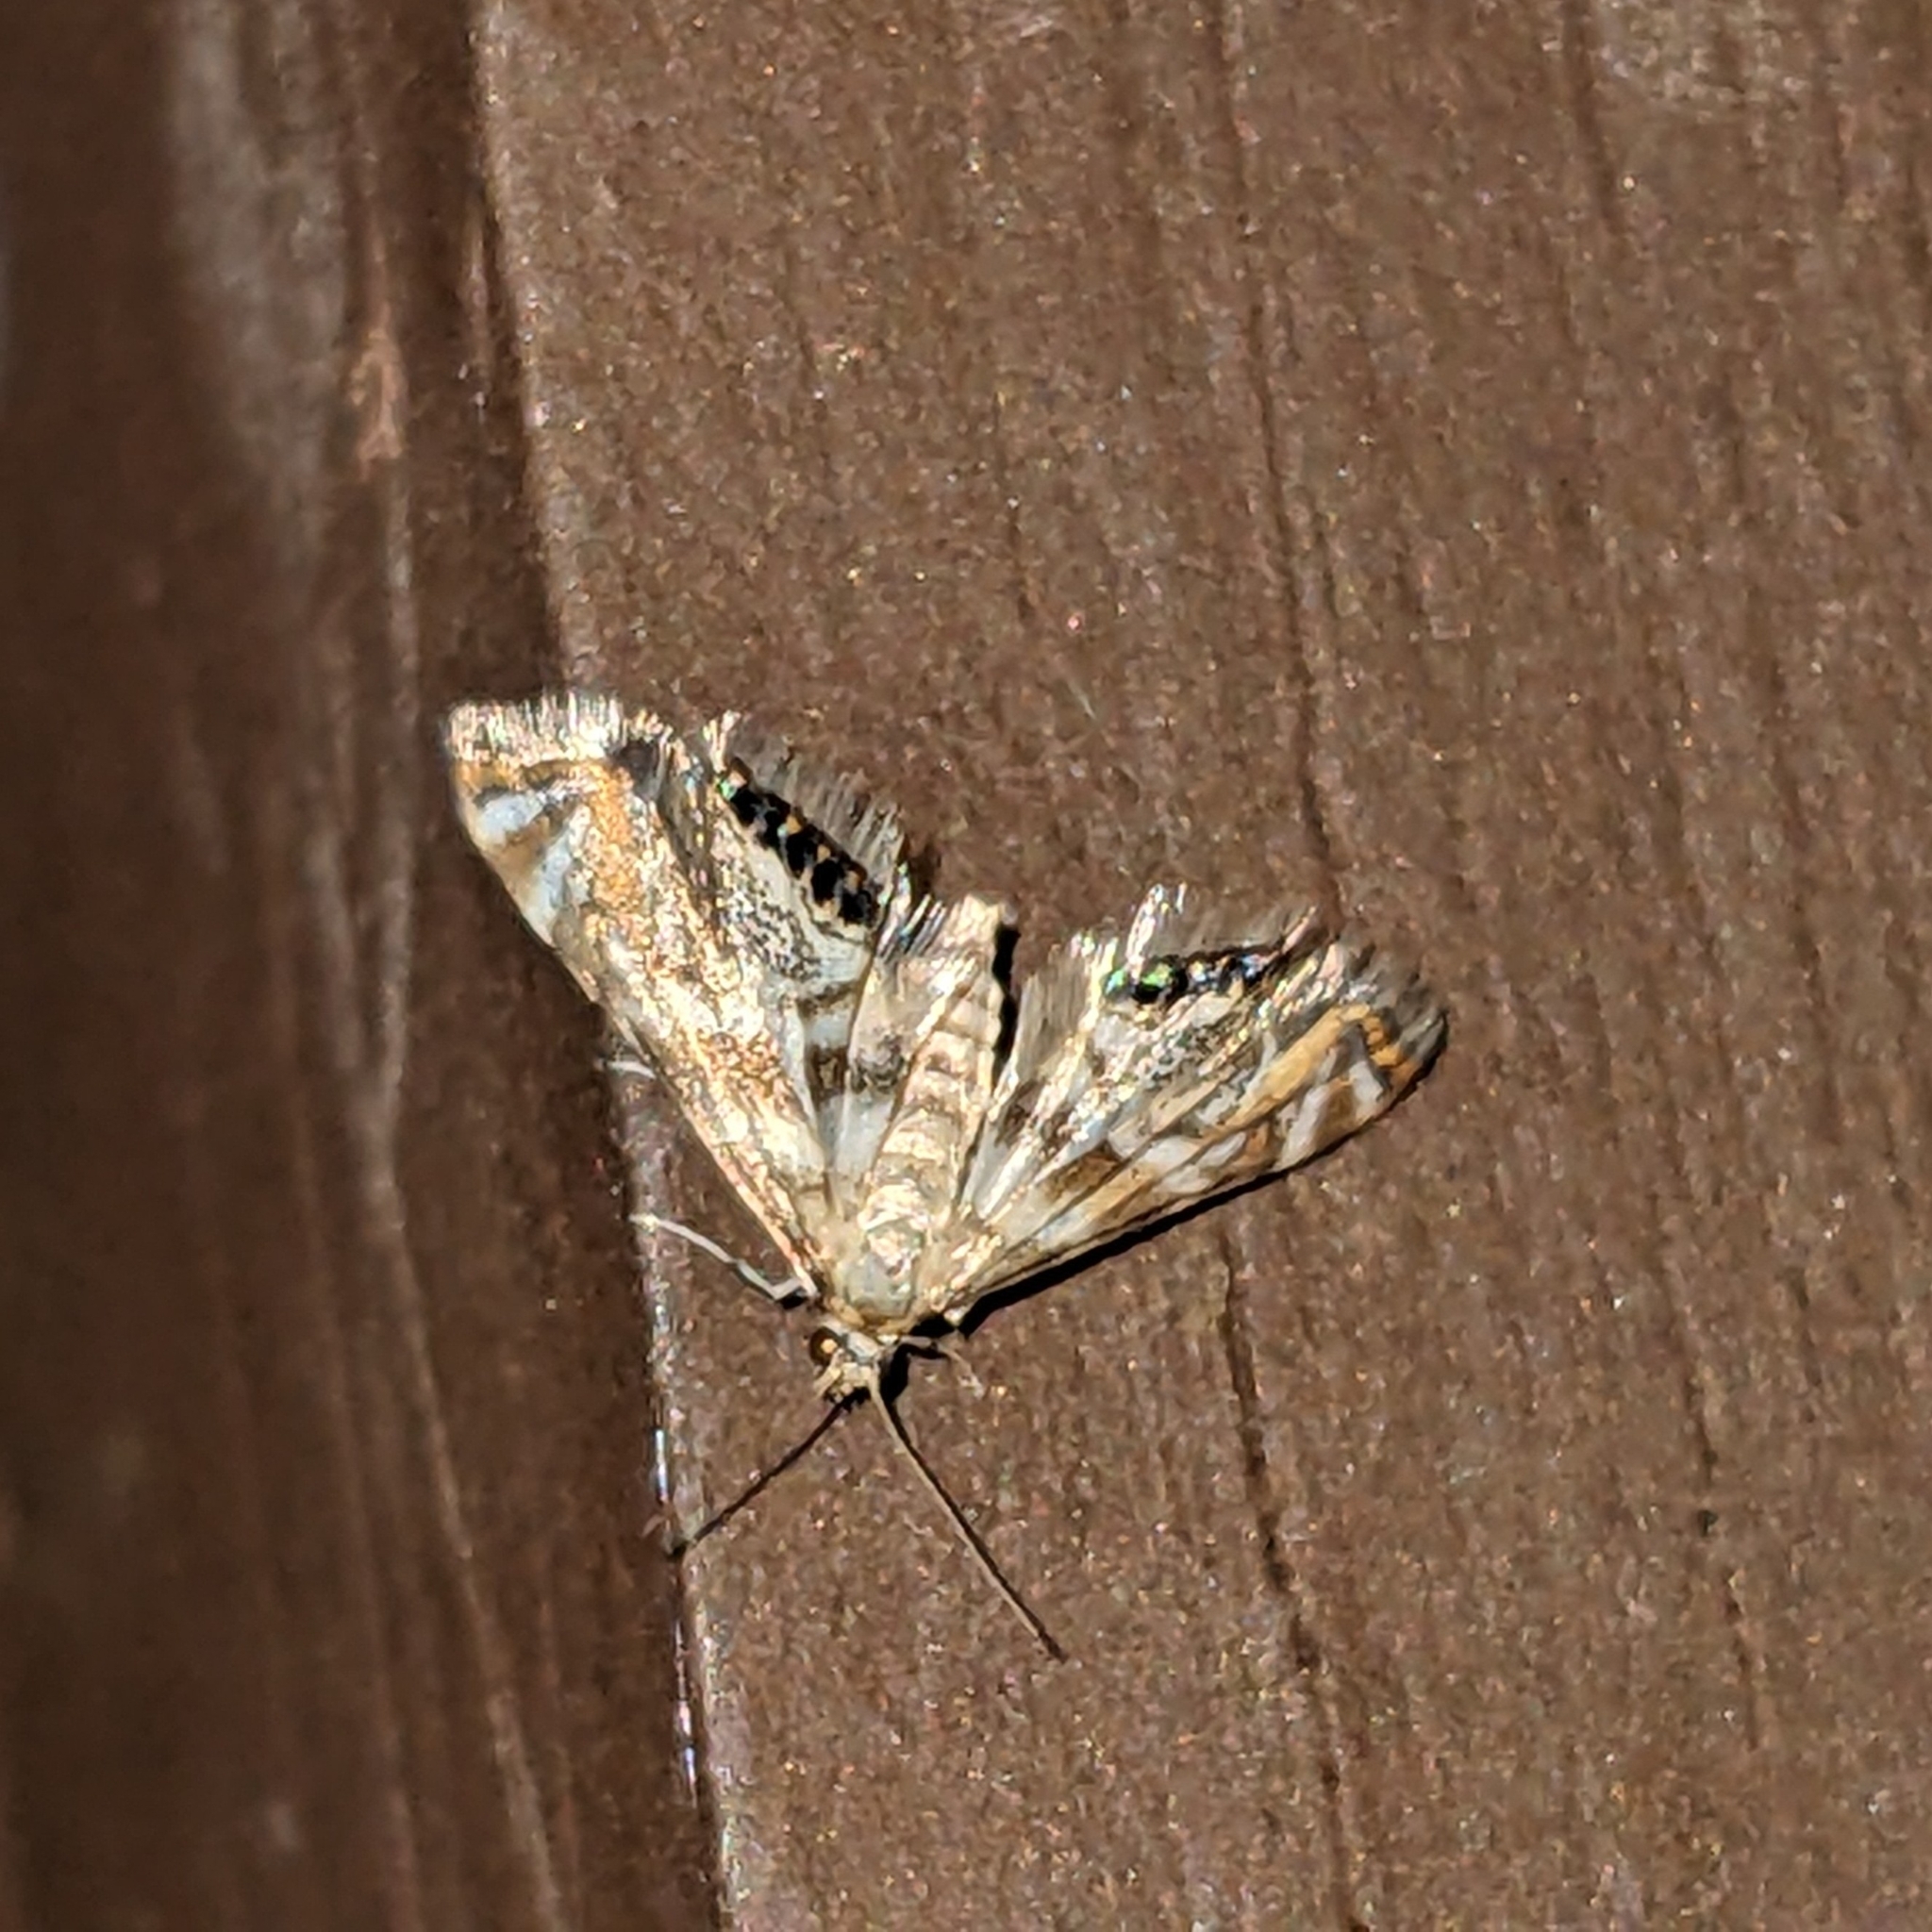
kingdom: Animalia
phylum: Arthropoda
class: Insecta
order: Lepidoptera
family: Crambidae
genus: Petrophila
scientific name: Petrophila canadensis
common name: Canadian petrophila
